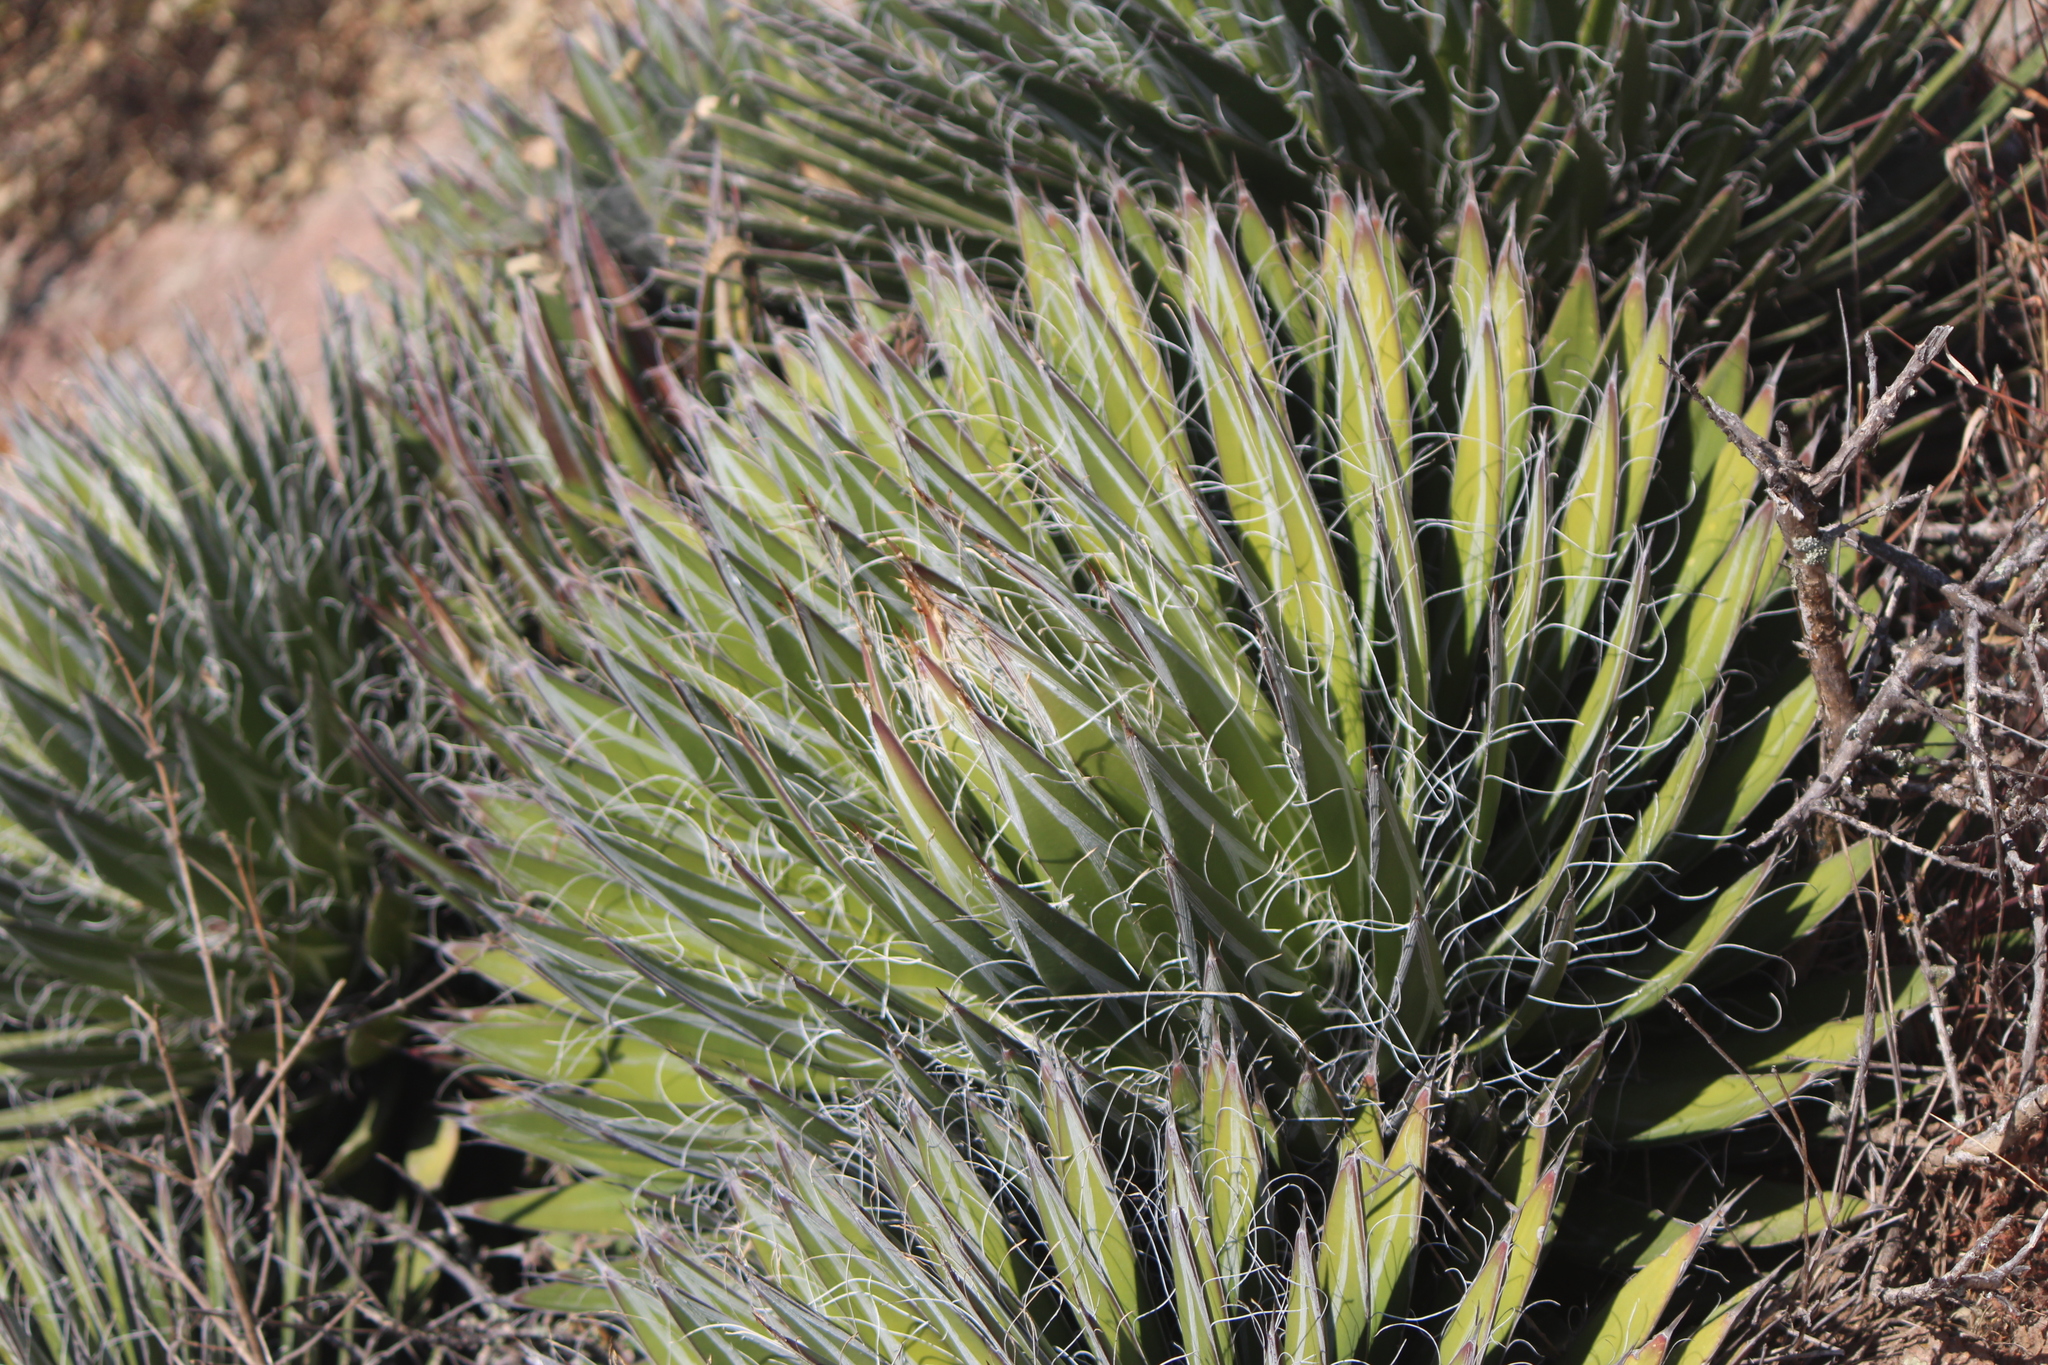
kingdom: Plantae
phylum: Tracheophyta
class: Liliopsida
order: Asparagales
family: Asparagaceae
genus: Agave
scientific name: Agave filifera
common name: Thread agave
